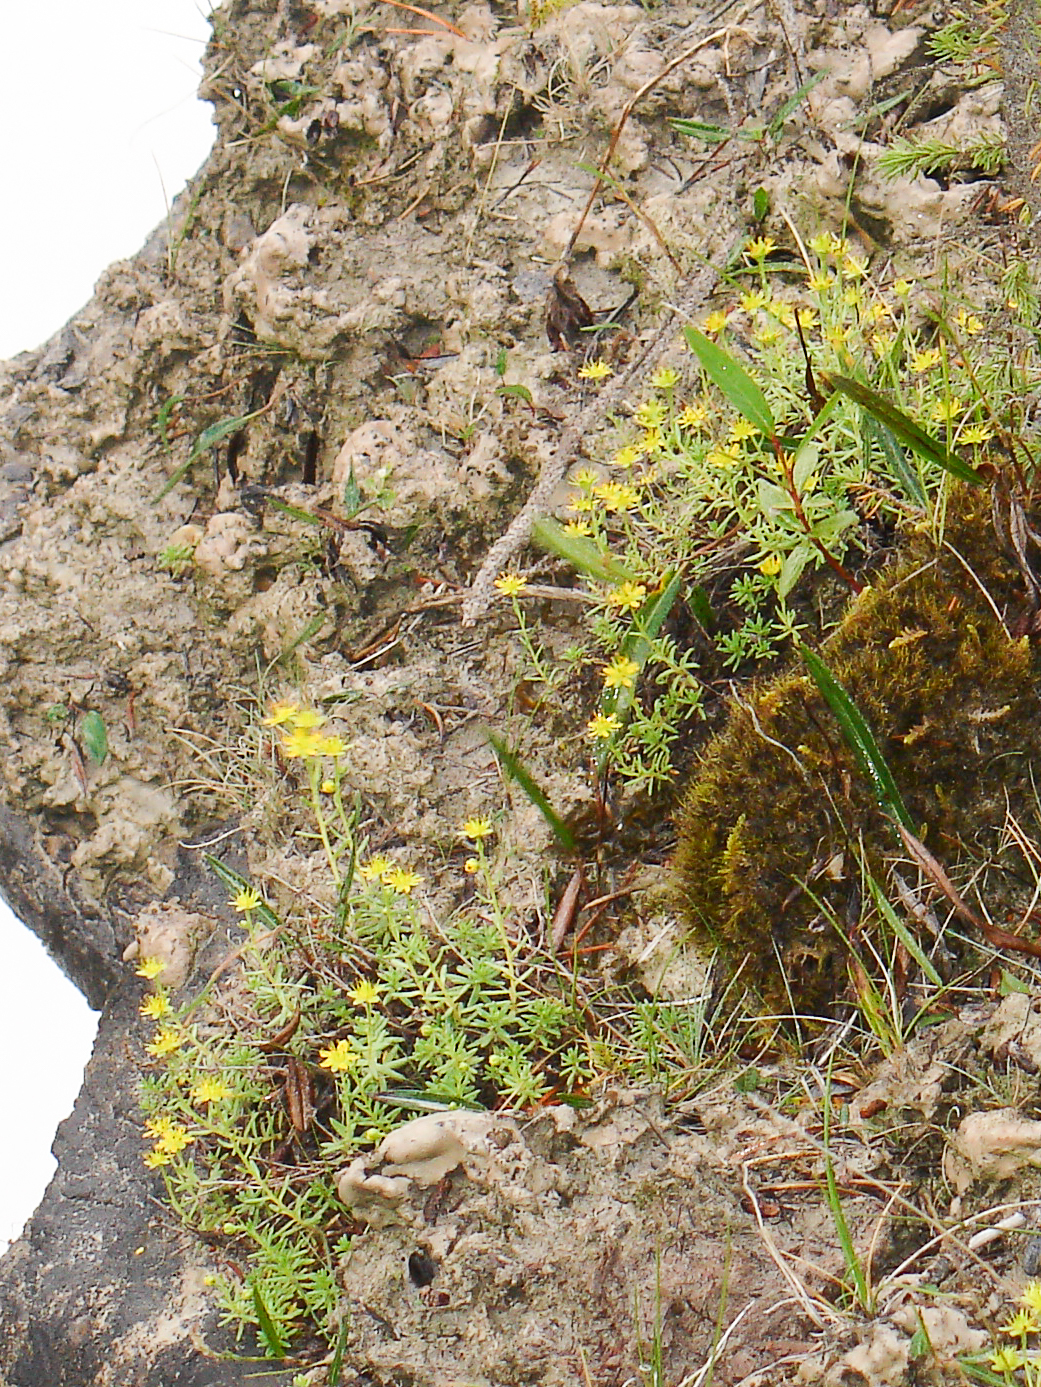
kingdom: Plantae
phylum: Tracheophyta
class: Magnoliopsida
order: Saxifragales
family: Saxifragaceae
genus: Saxifraga
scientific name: Saxifraga aizoides
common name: Yellow mountain saxifrage
